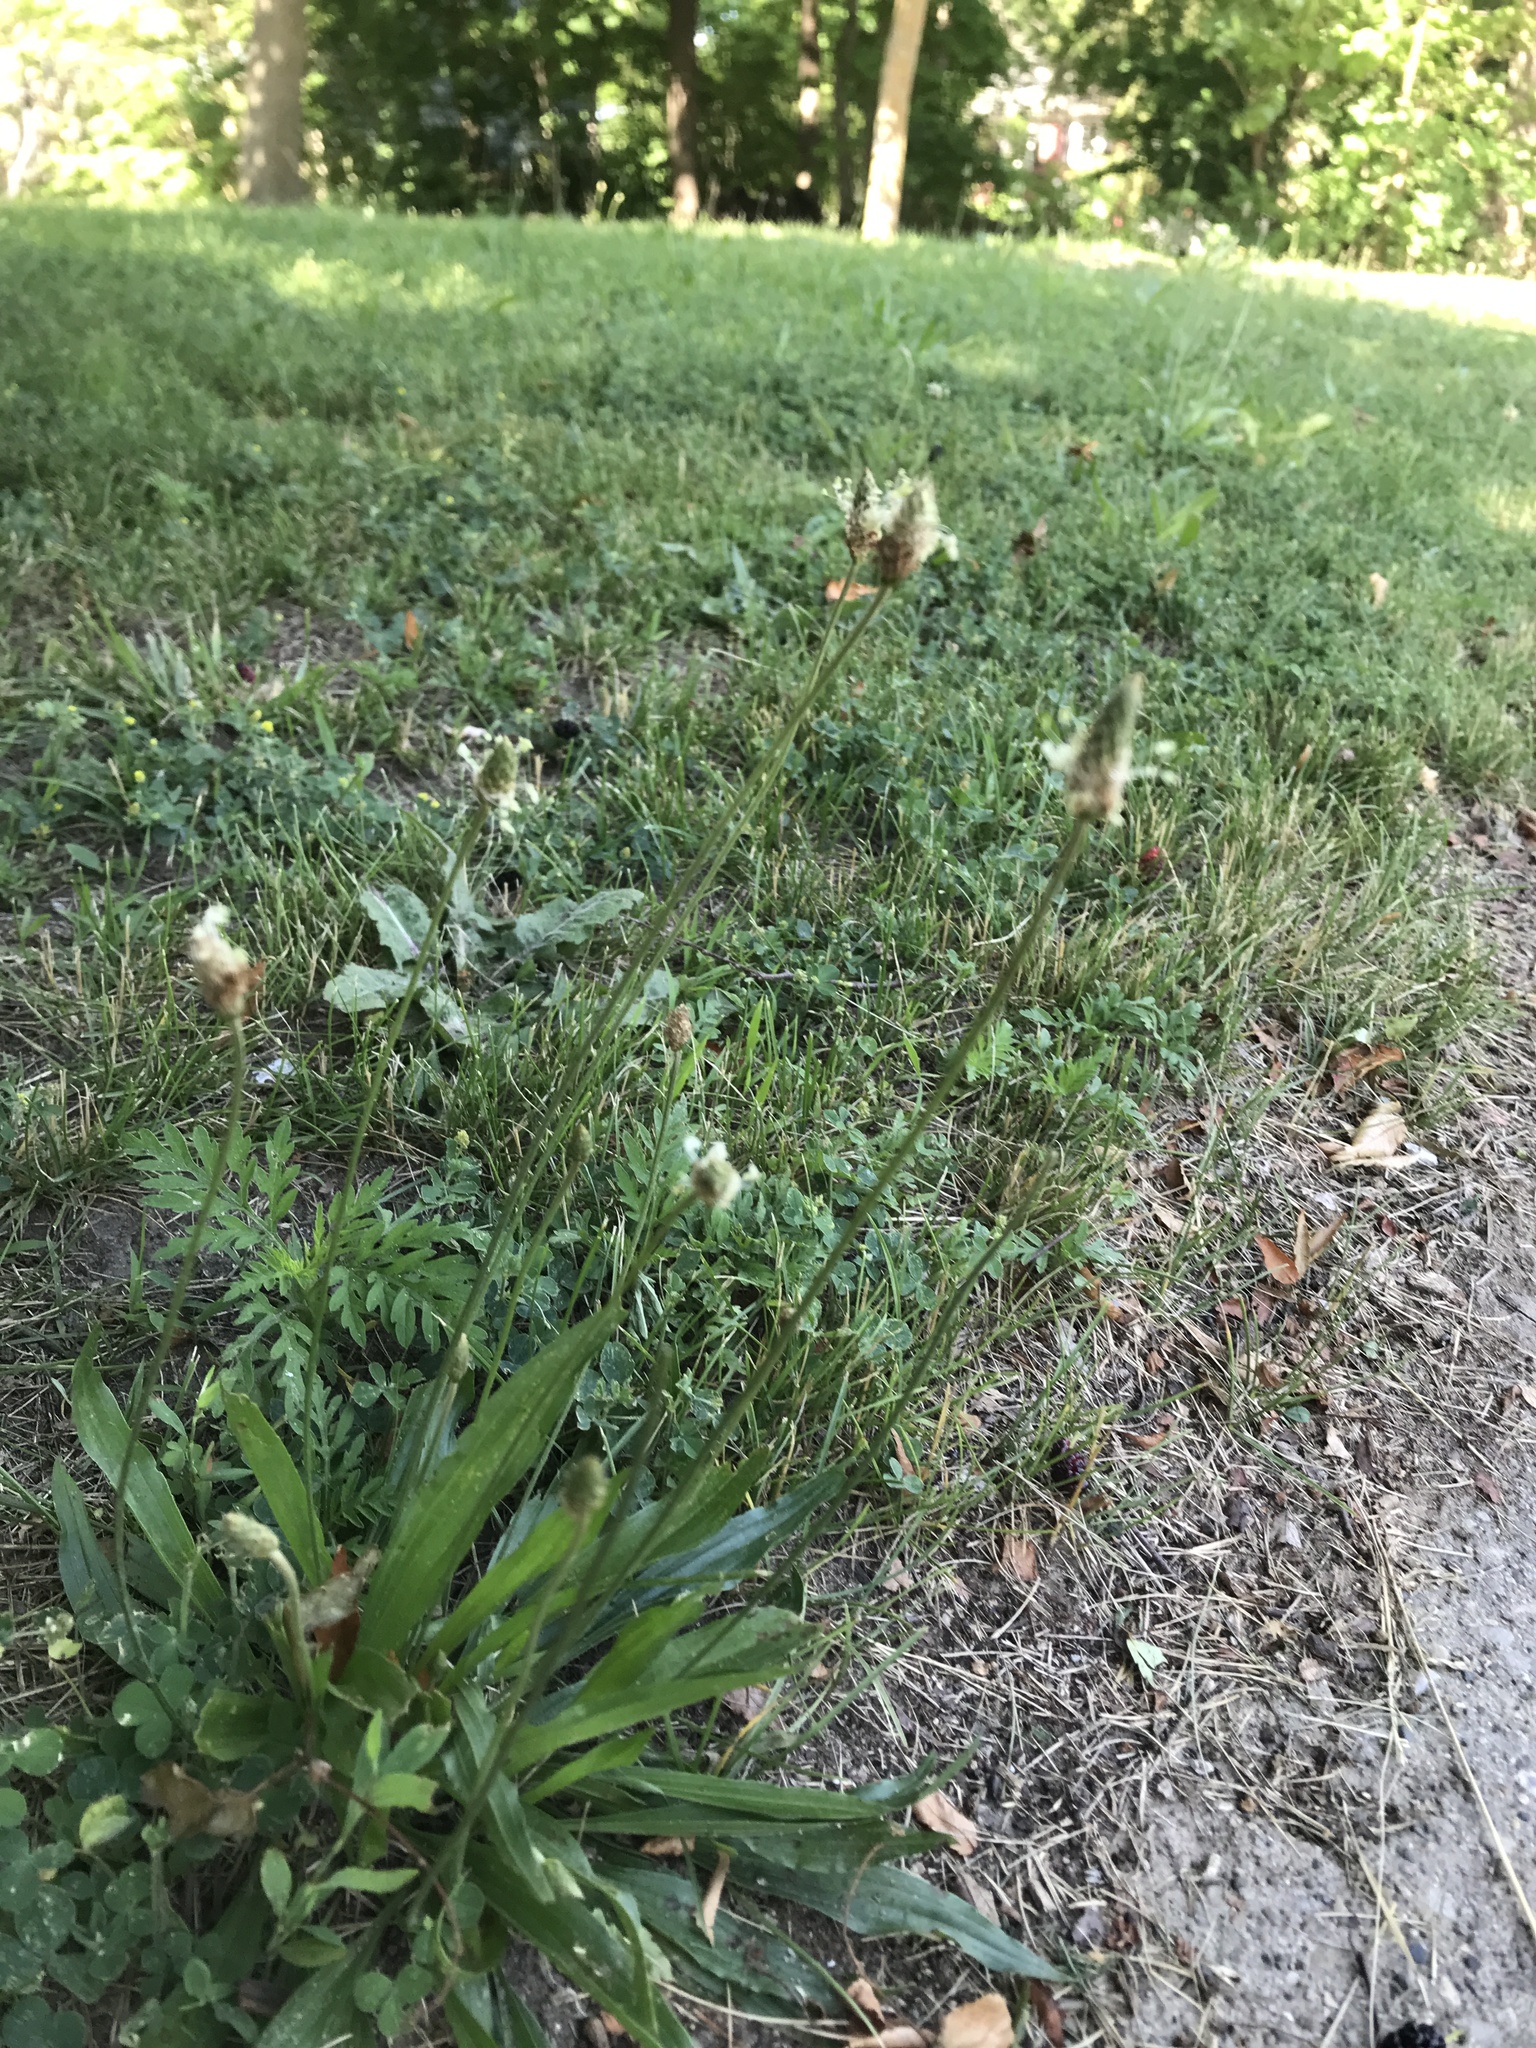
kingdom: Plantae
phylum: Tracheophyta
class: Magnoliopsida
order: Lamiales
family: Plantaginaceae
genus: Plantago
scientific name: Plantago lanceolata
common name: Ribwort plantain
